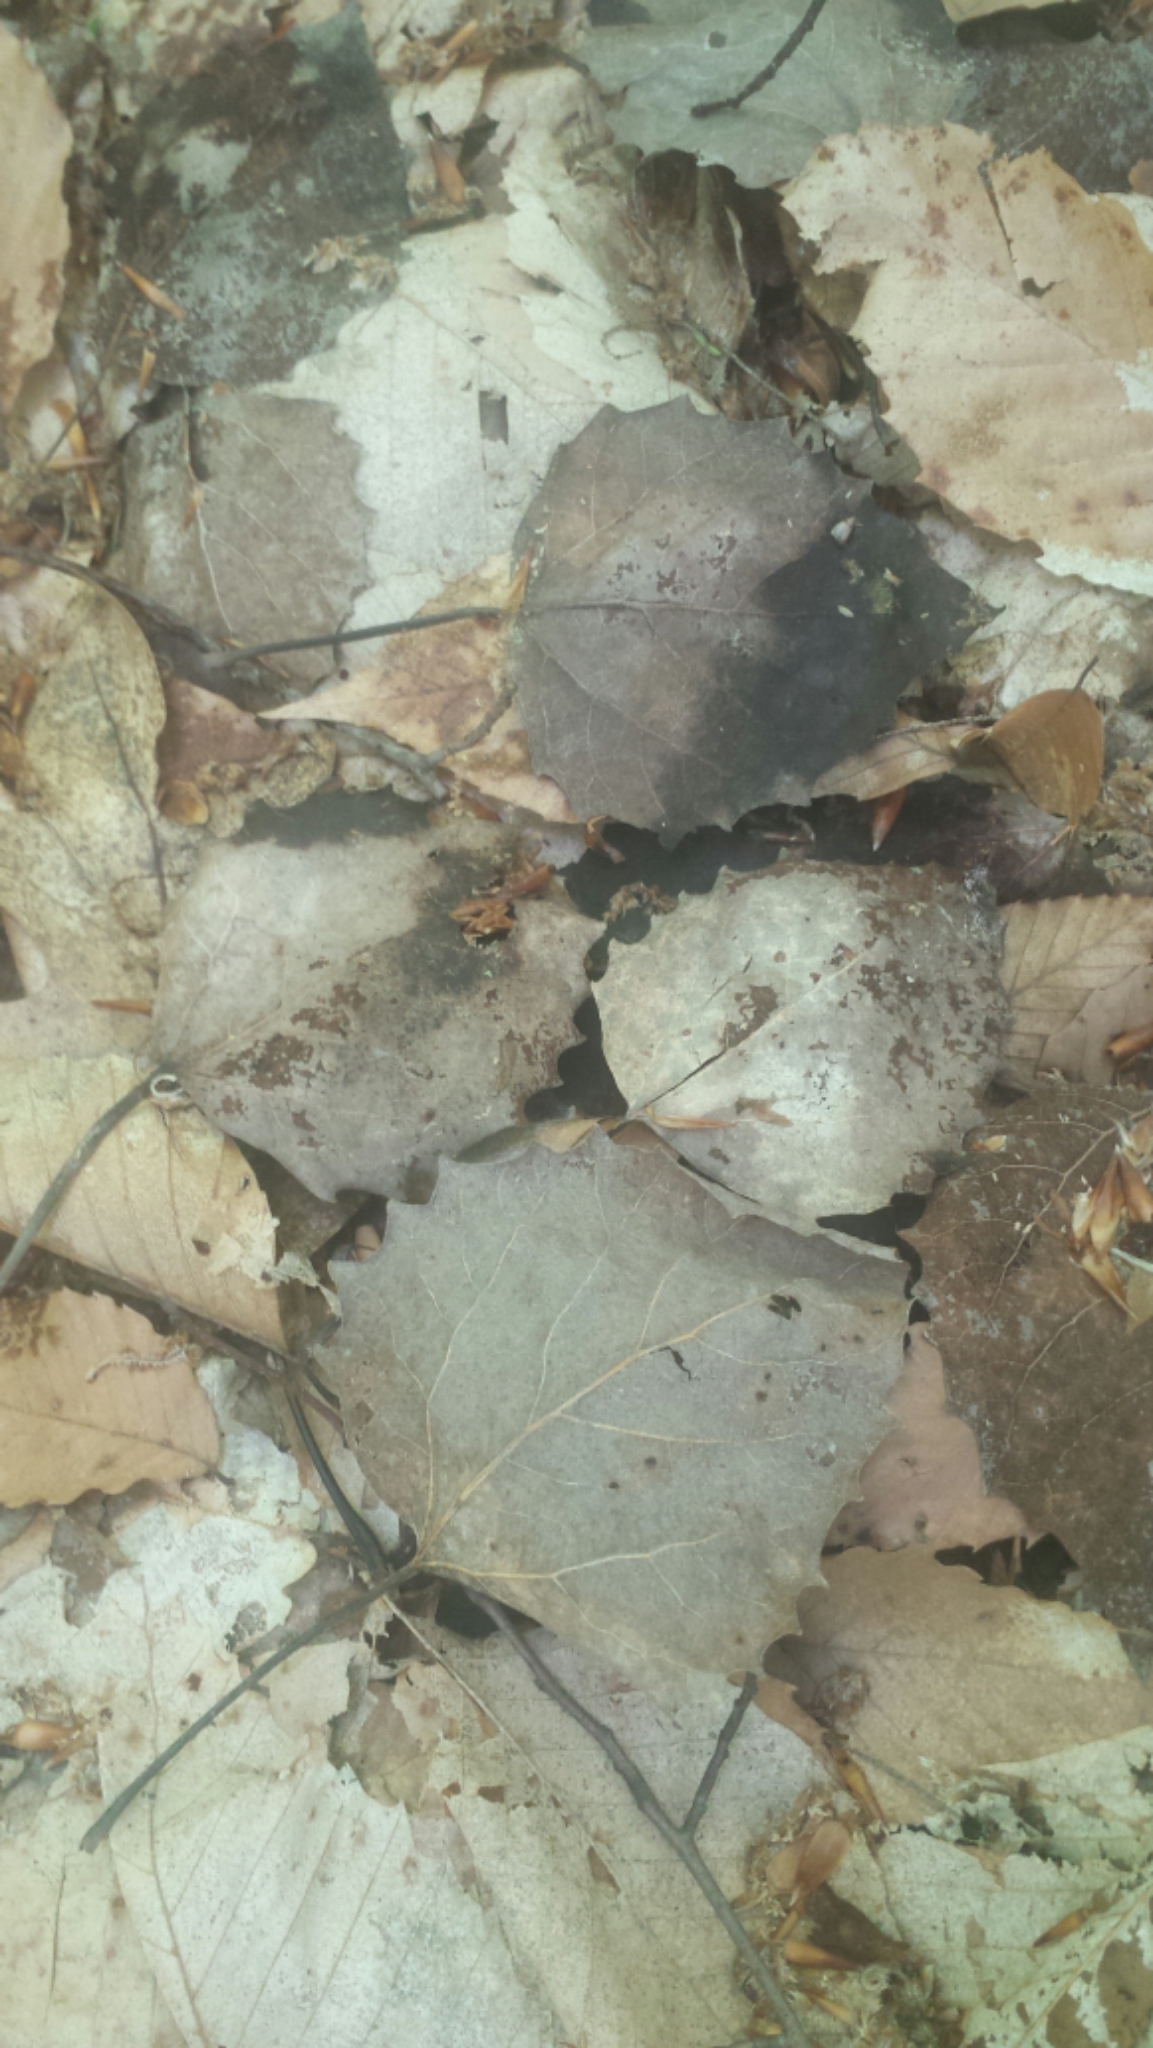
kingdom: Plantae
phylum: Tracheophyta
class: Magnoliopsida
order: Malpighiales
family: Salicaceae
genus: Populus
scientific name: Populus grandidentata
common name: Bigtooth aspen
